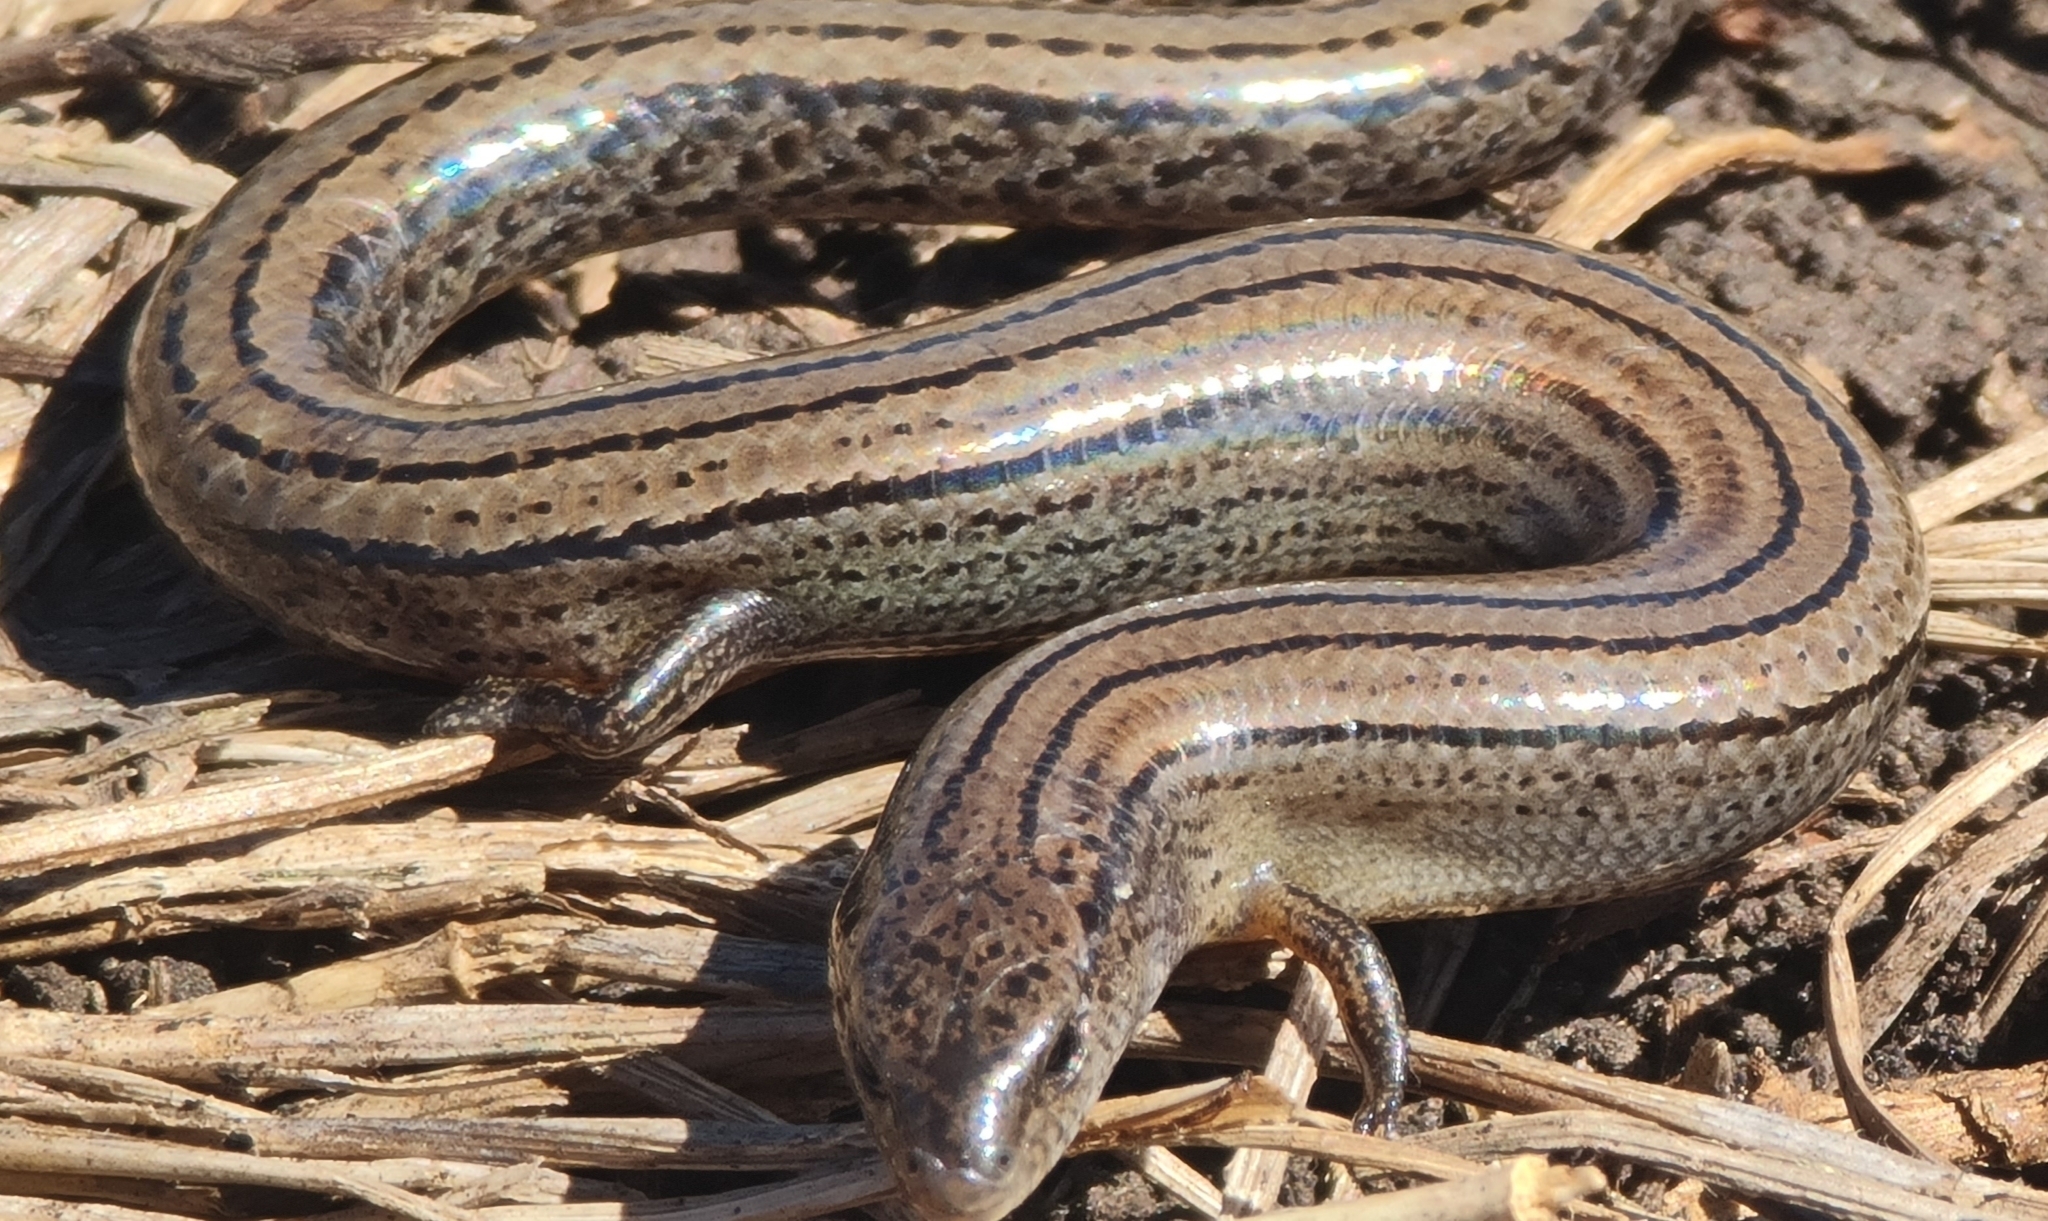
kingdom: Animalia
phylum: Chordata
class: Squamata
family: Scincidae
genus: Hemiergis
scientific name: Hemiergis talbingoensis
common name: Victoria three-toed earless skink
